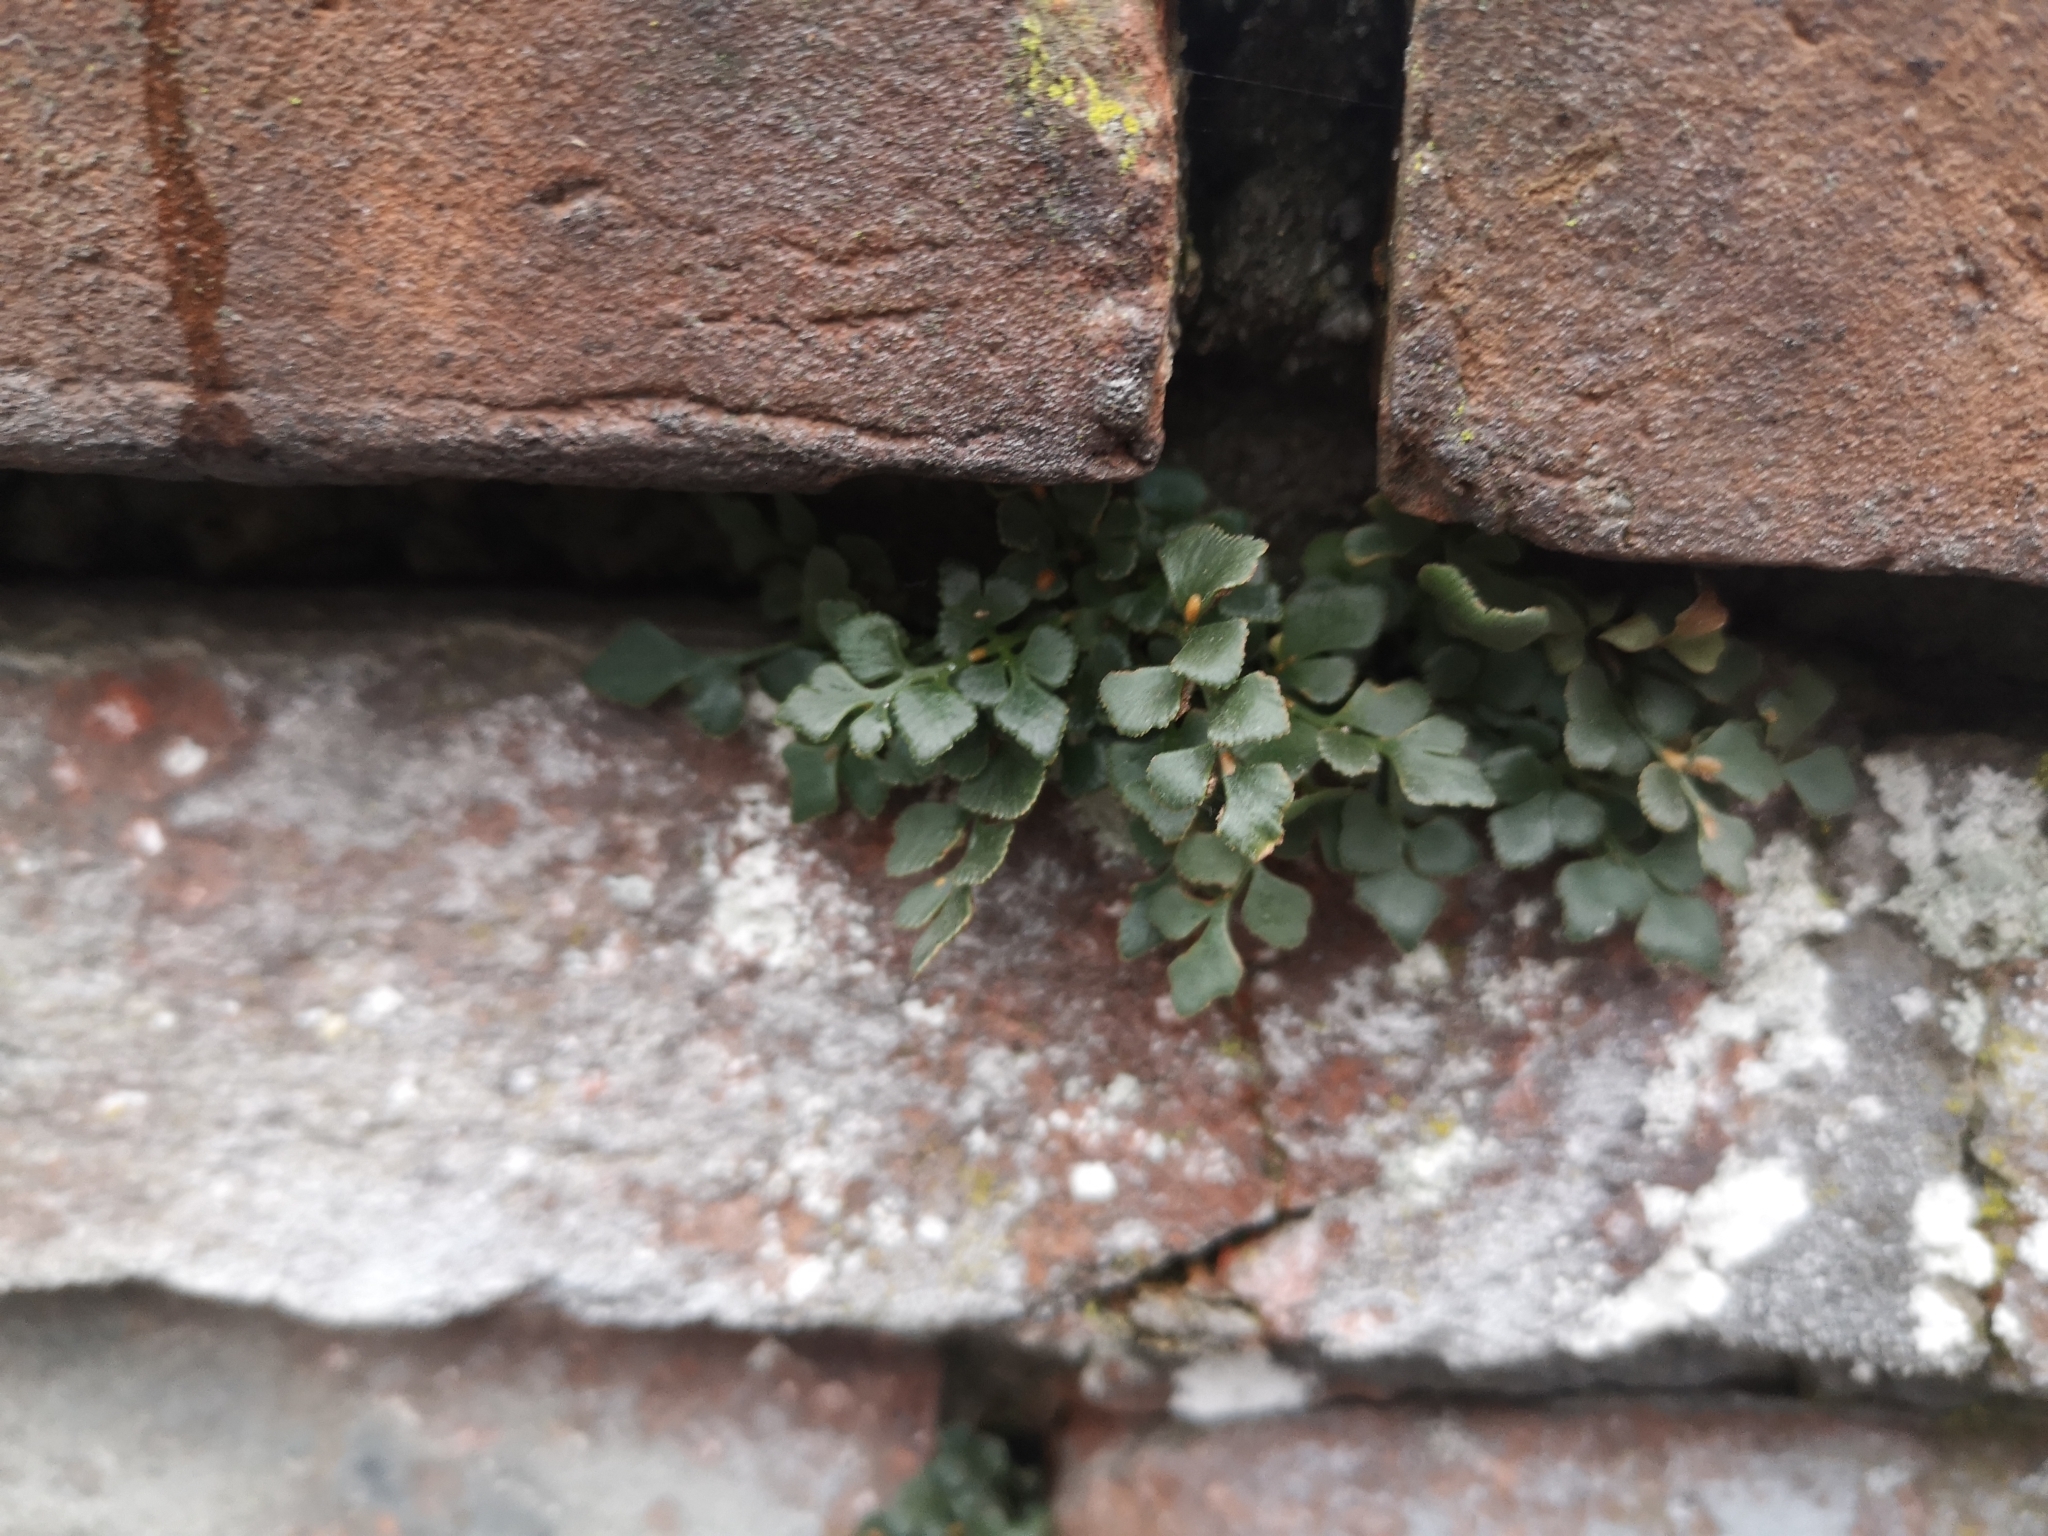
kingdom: Plantae
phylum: Tracheophyta
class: Polypodiopsida
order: Polypodiales
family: Aspleniaceae
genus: Asplenium
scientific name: Asplenium ruta-muraria
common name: Wall-rue
